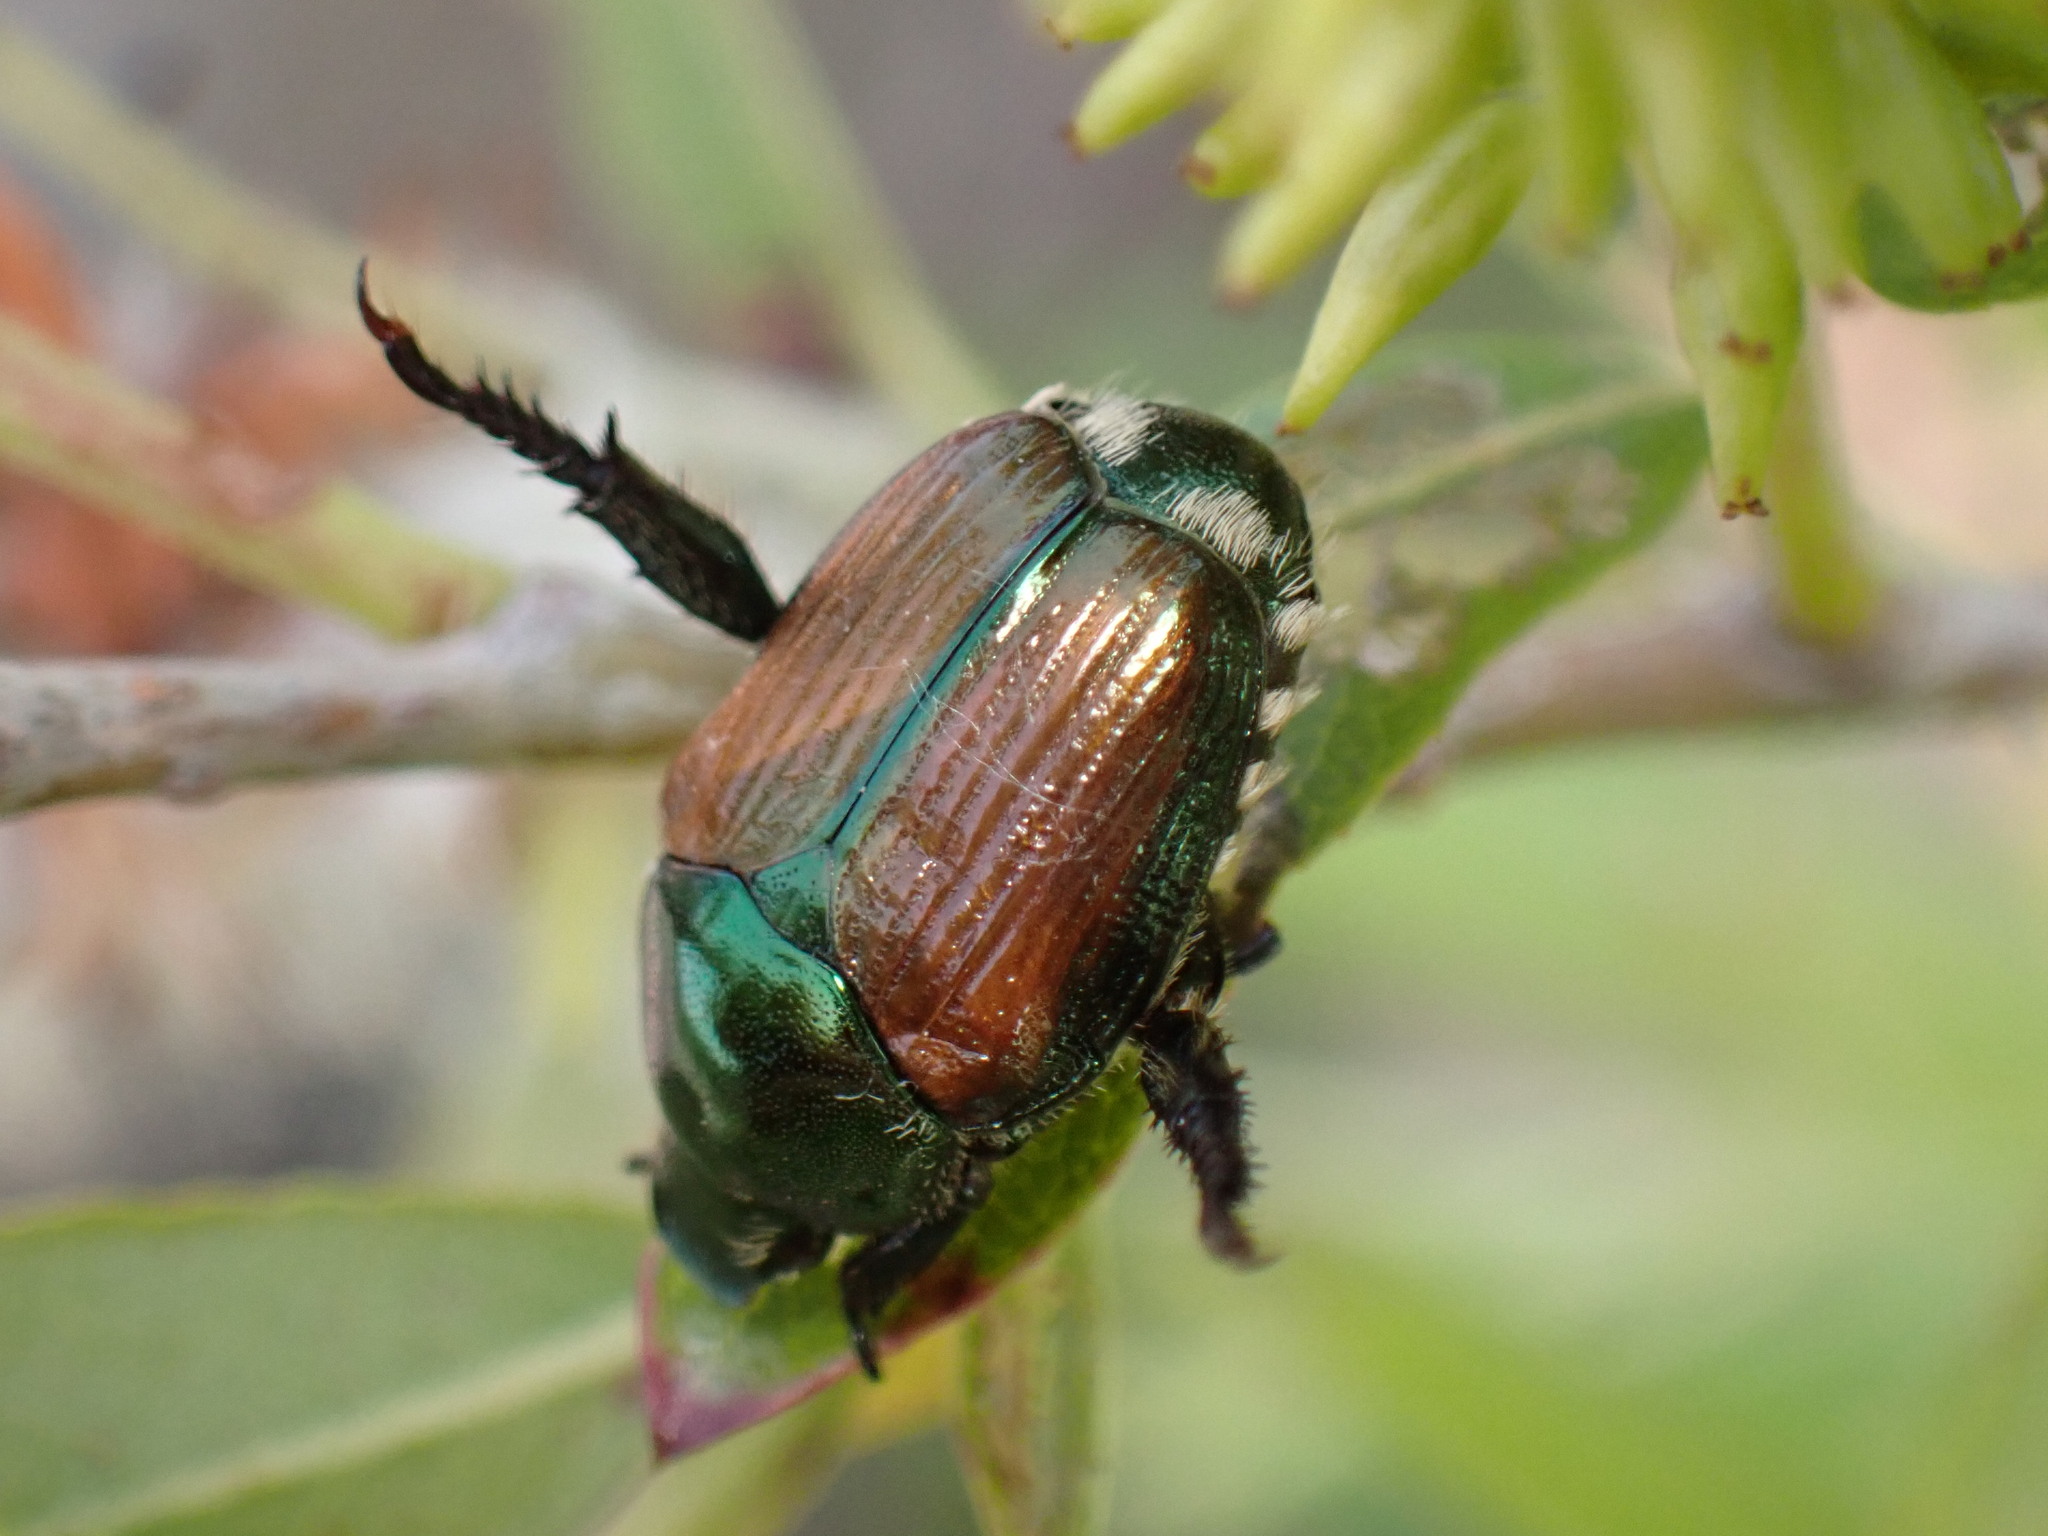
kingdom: Animalia
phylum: Arthropoda
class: Insecta
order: Coleoptera
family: Scarabaeidae
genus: Popillia
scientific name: Popillia japonica
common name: Japanese beetle
